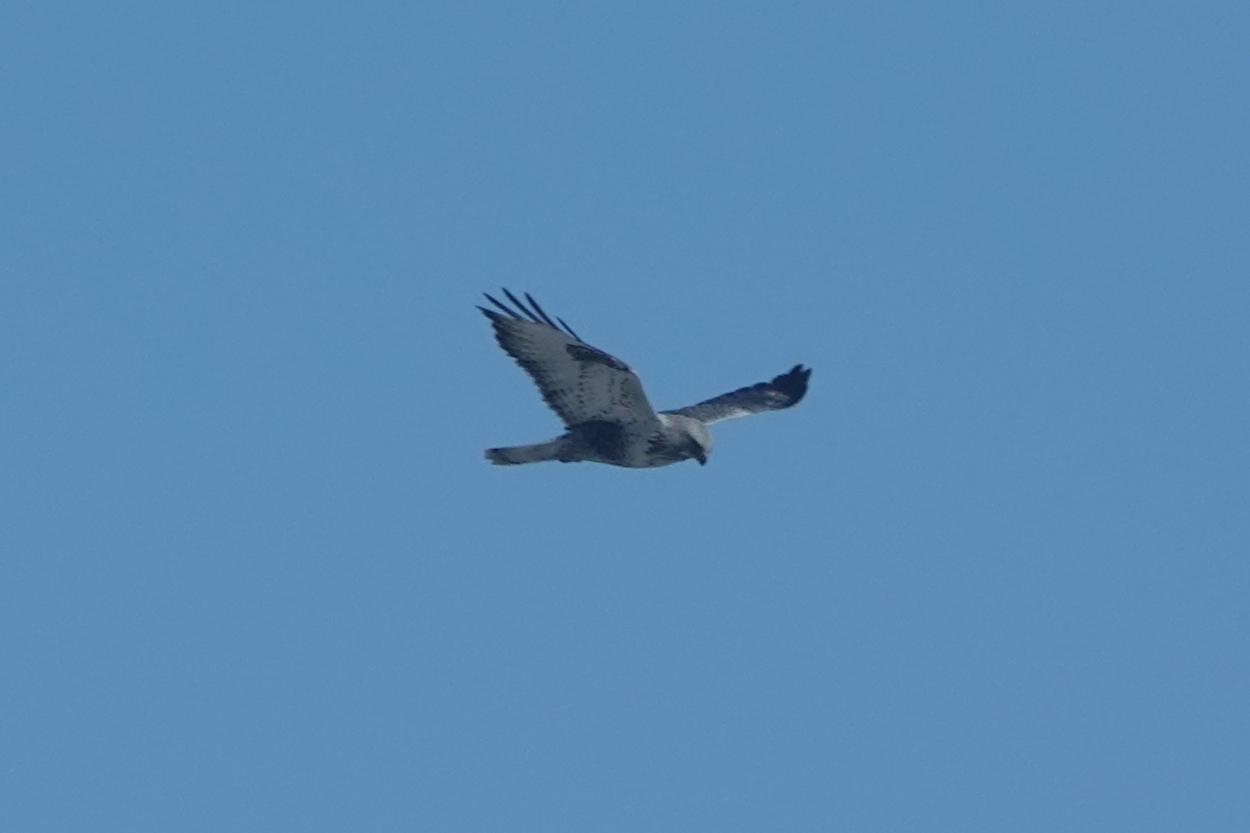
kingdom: Animalia
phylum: Chordata
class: Aves
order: Accipitriformes
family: Accipitridae
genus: Buteo
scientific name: Buteo lagopus
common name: Rough-legged buzzard
